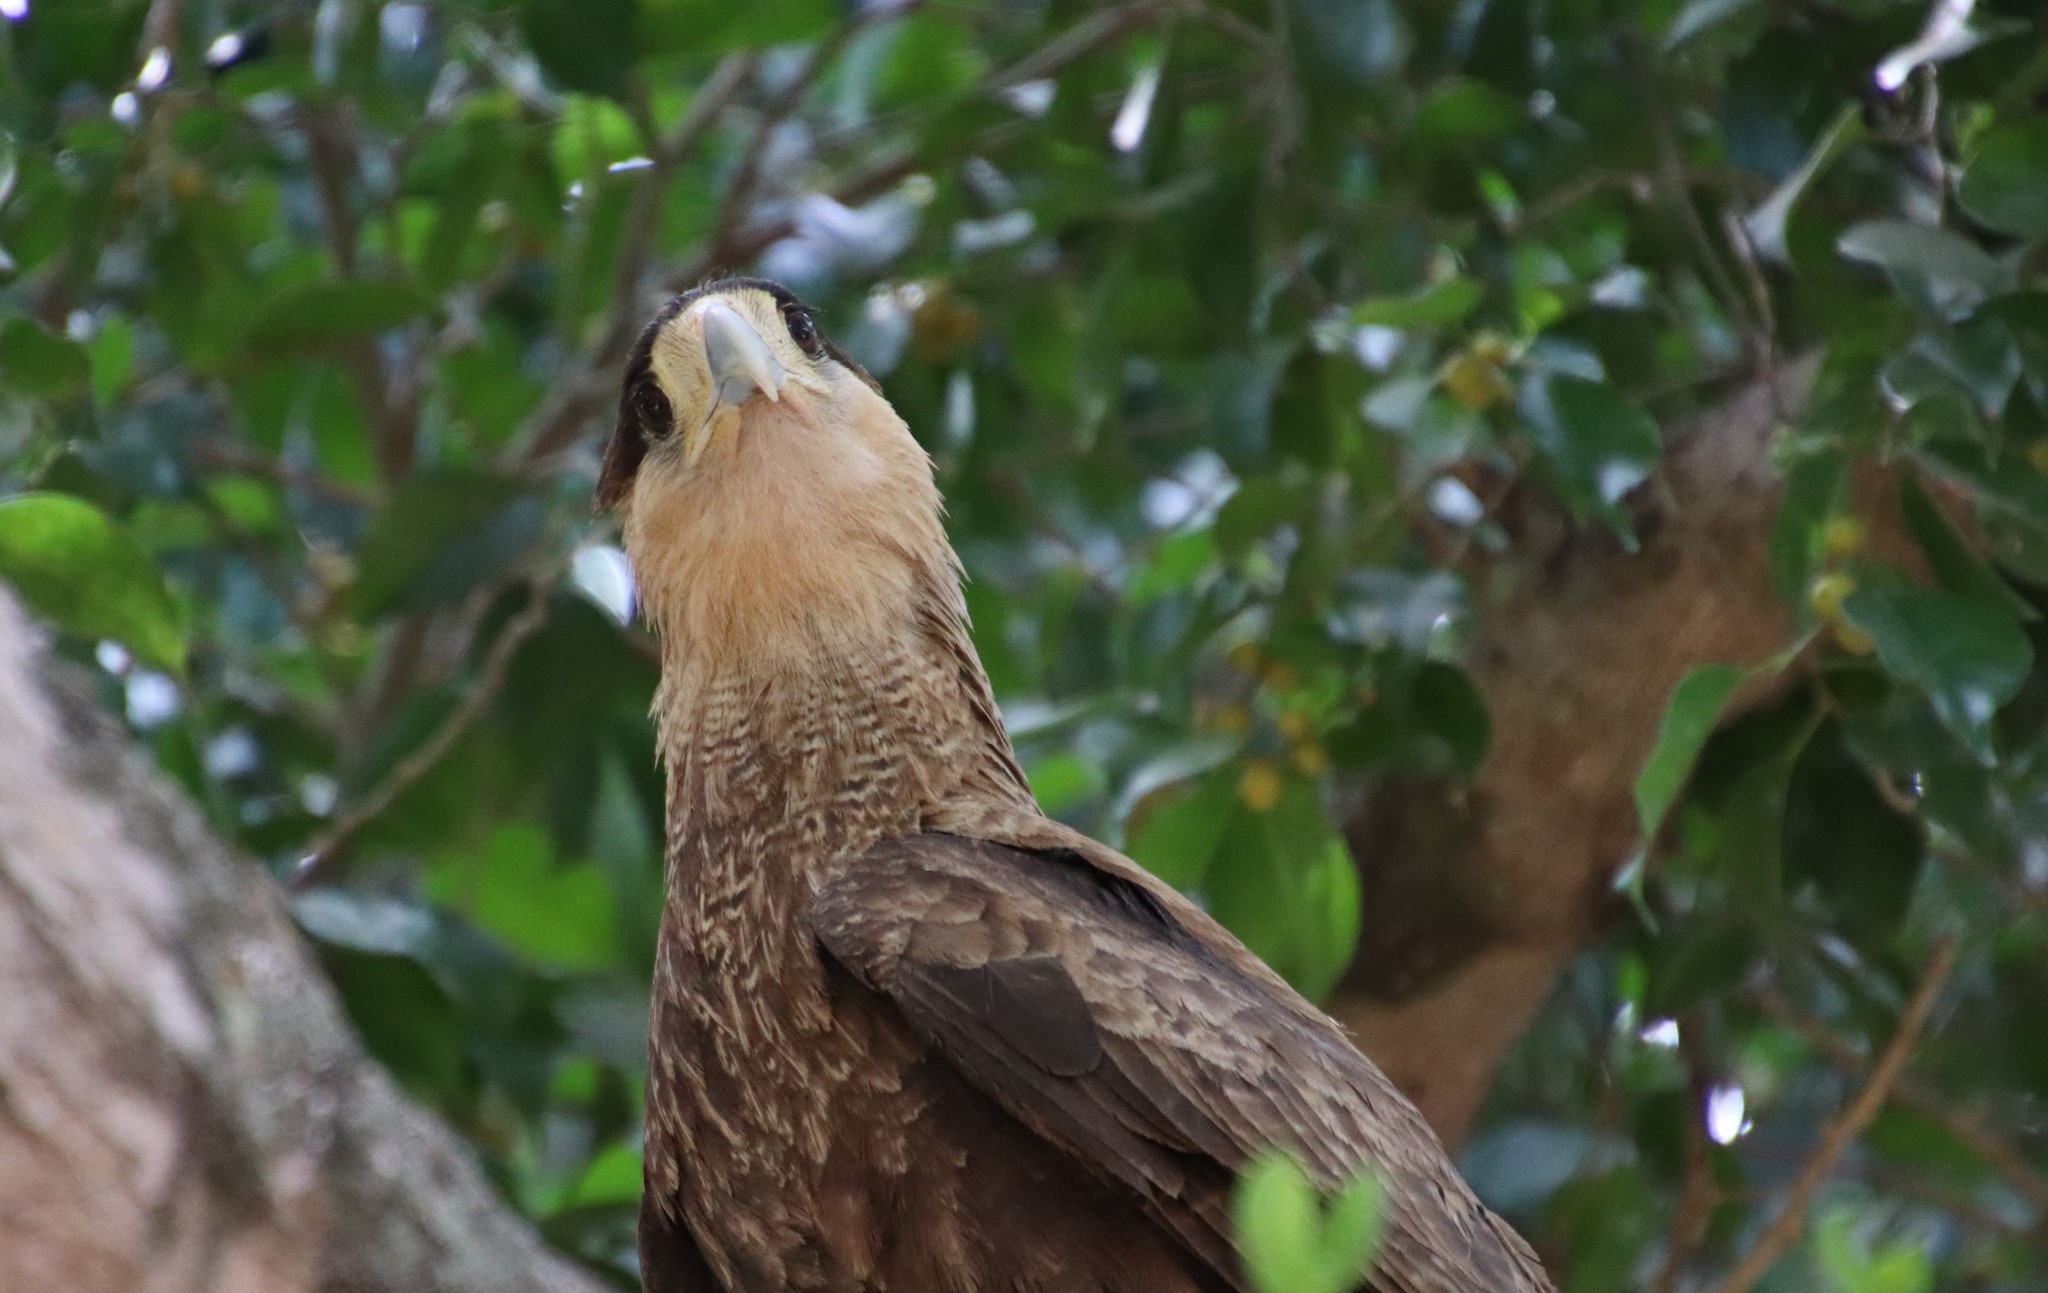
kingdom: Animalia
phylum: Chordata
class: Aves
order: Falconiformes
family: Falconidae
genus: Caracara
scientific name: Caracara plancus
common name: Southern caracara
